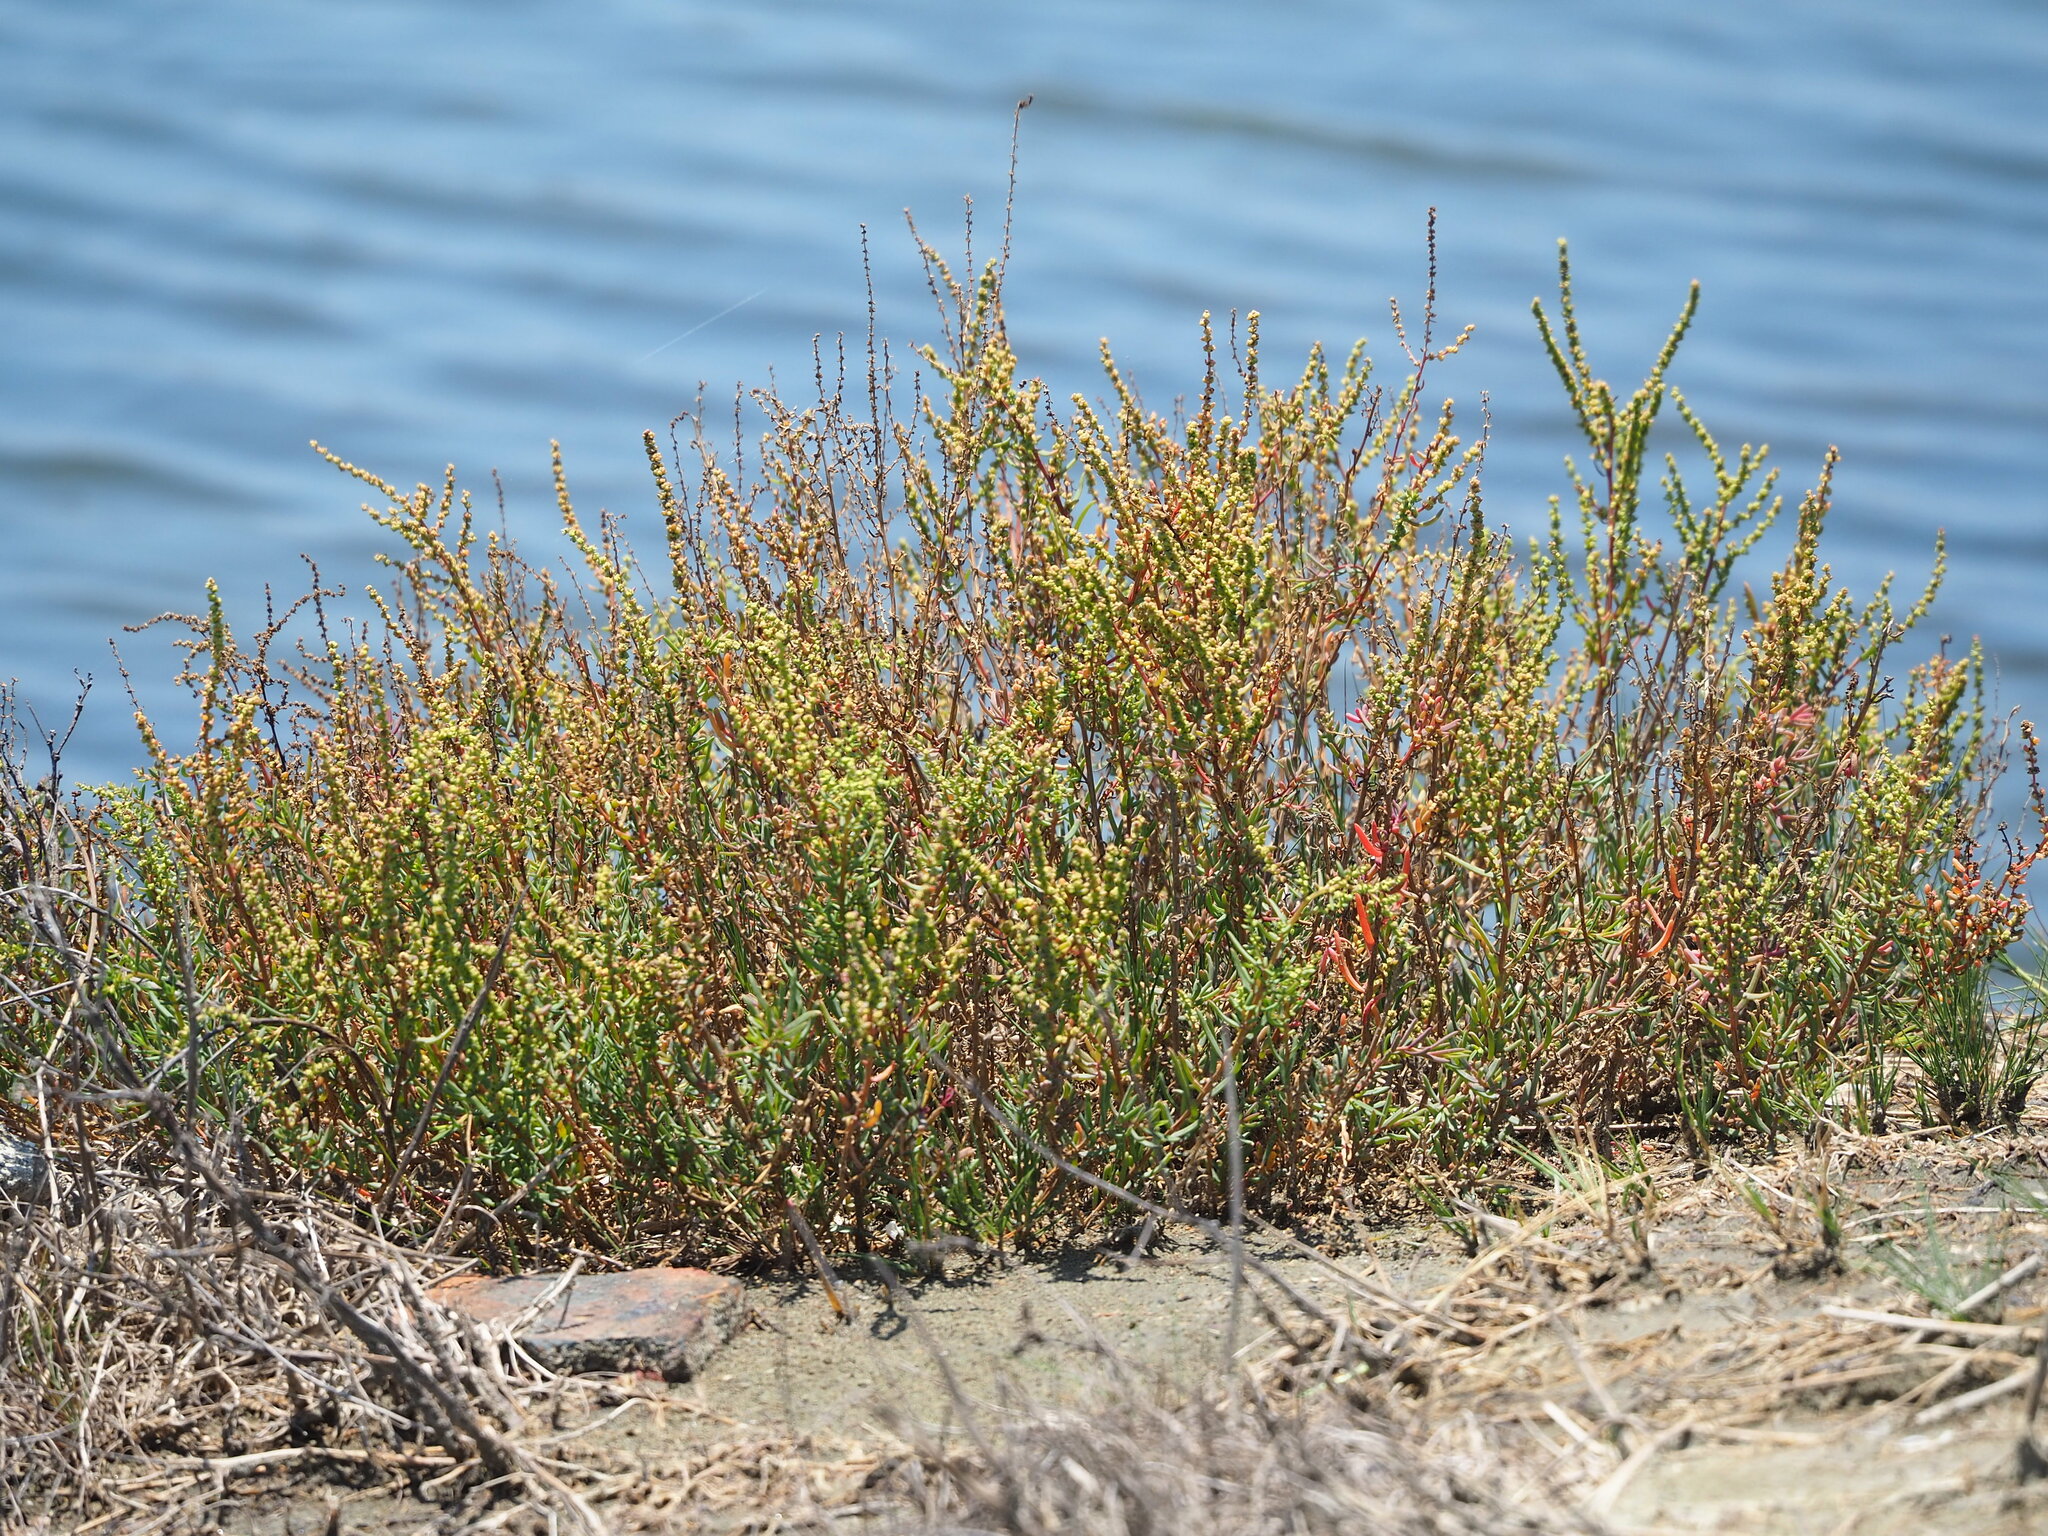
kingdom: Plantae
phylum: Tracheophyta
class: Magnoliopsida
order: Caryophyllales
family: Amaranthaceae
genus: Suaeda
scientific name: Suaeda maritima
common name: Annual sea-blite
